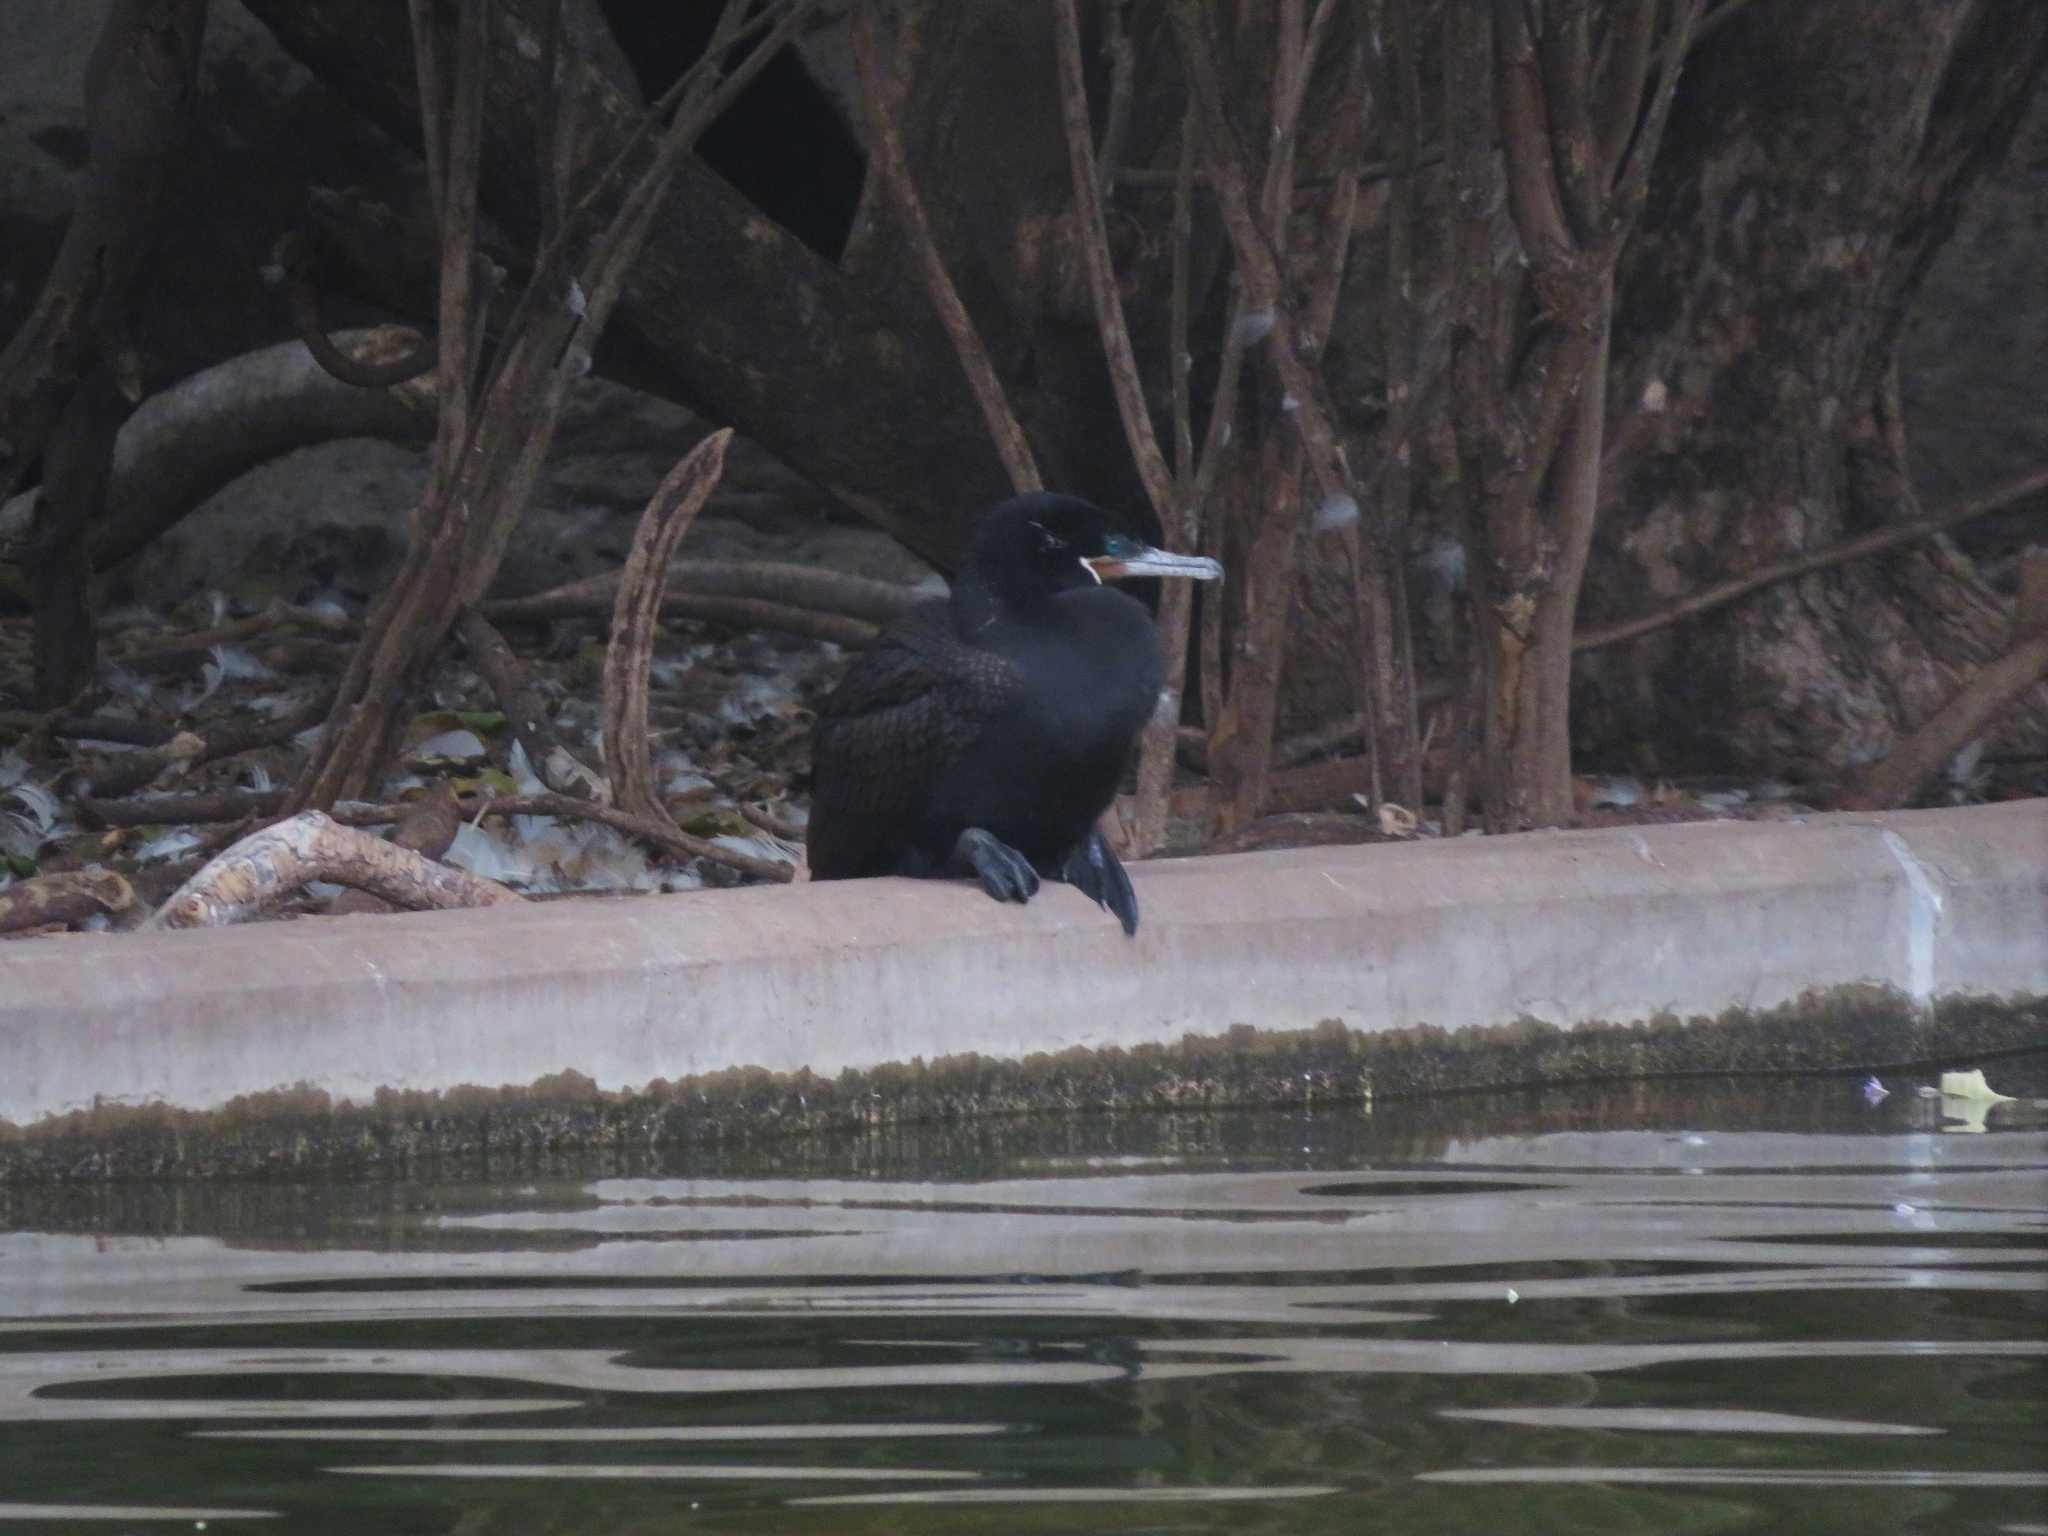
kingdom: Animalia
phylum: Chordata
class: Aves
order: Suliformes
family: Phalacrocoracidae
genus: Phalacrocorax
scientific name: Phalacrocorax brasilianus
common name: Neotropic cormorant
